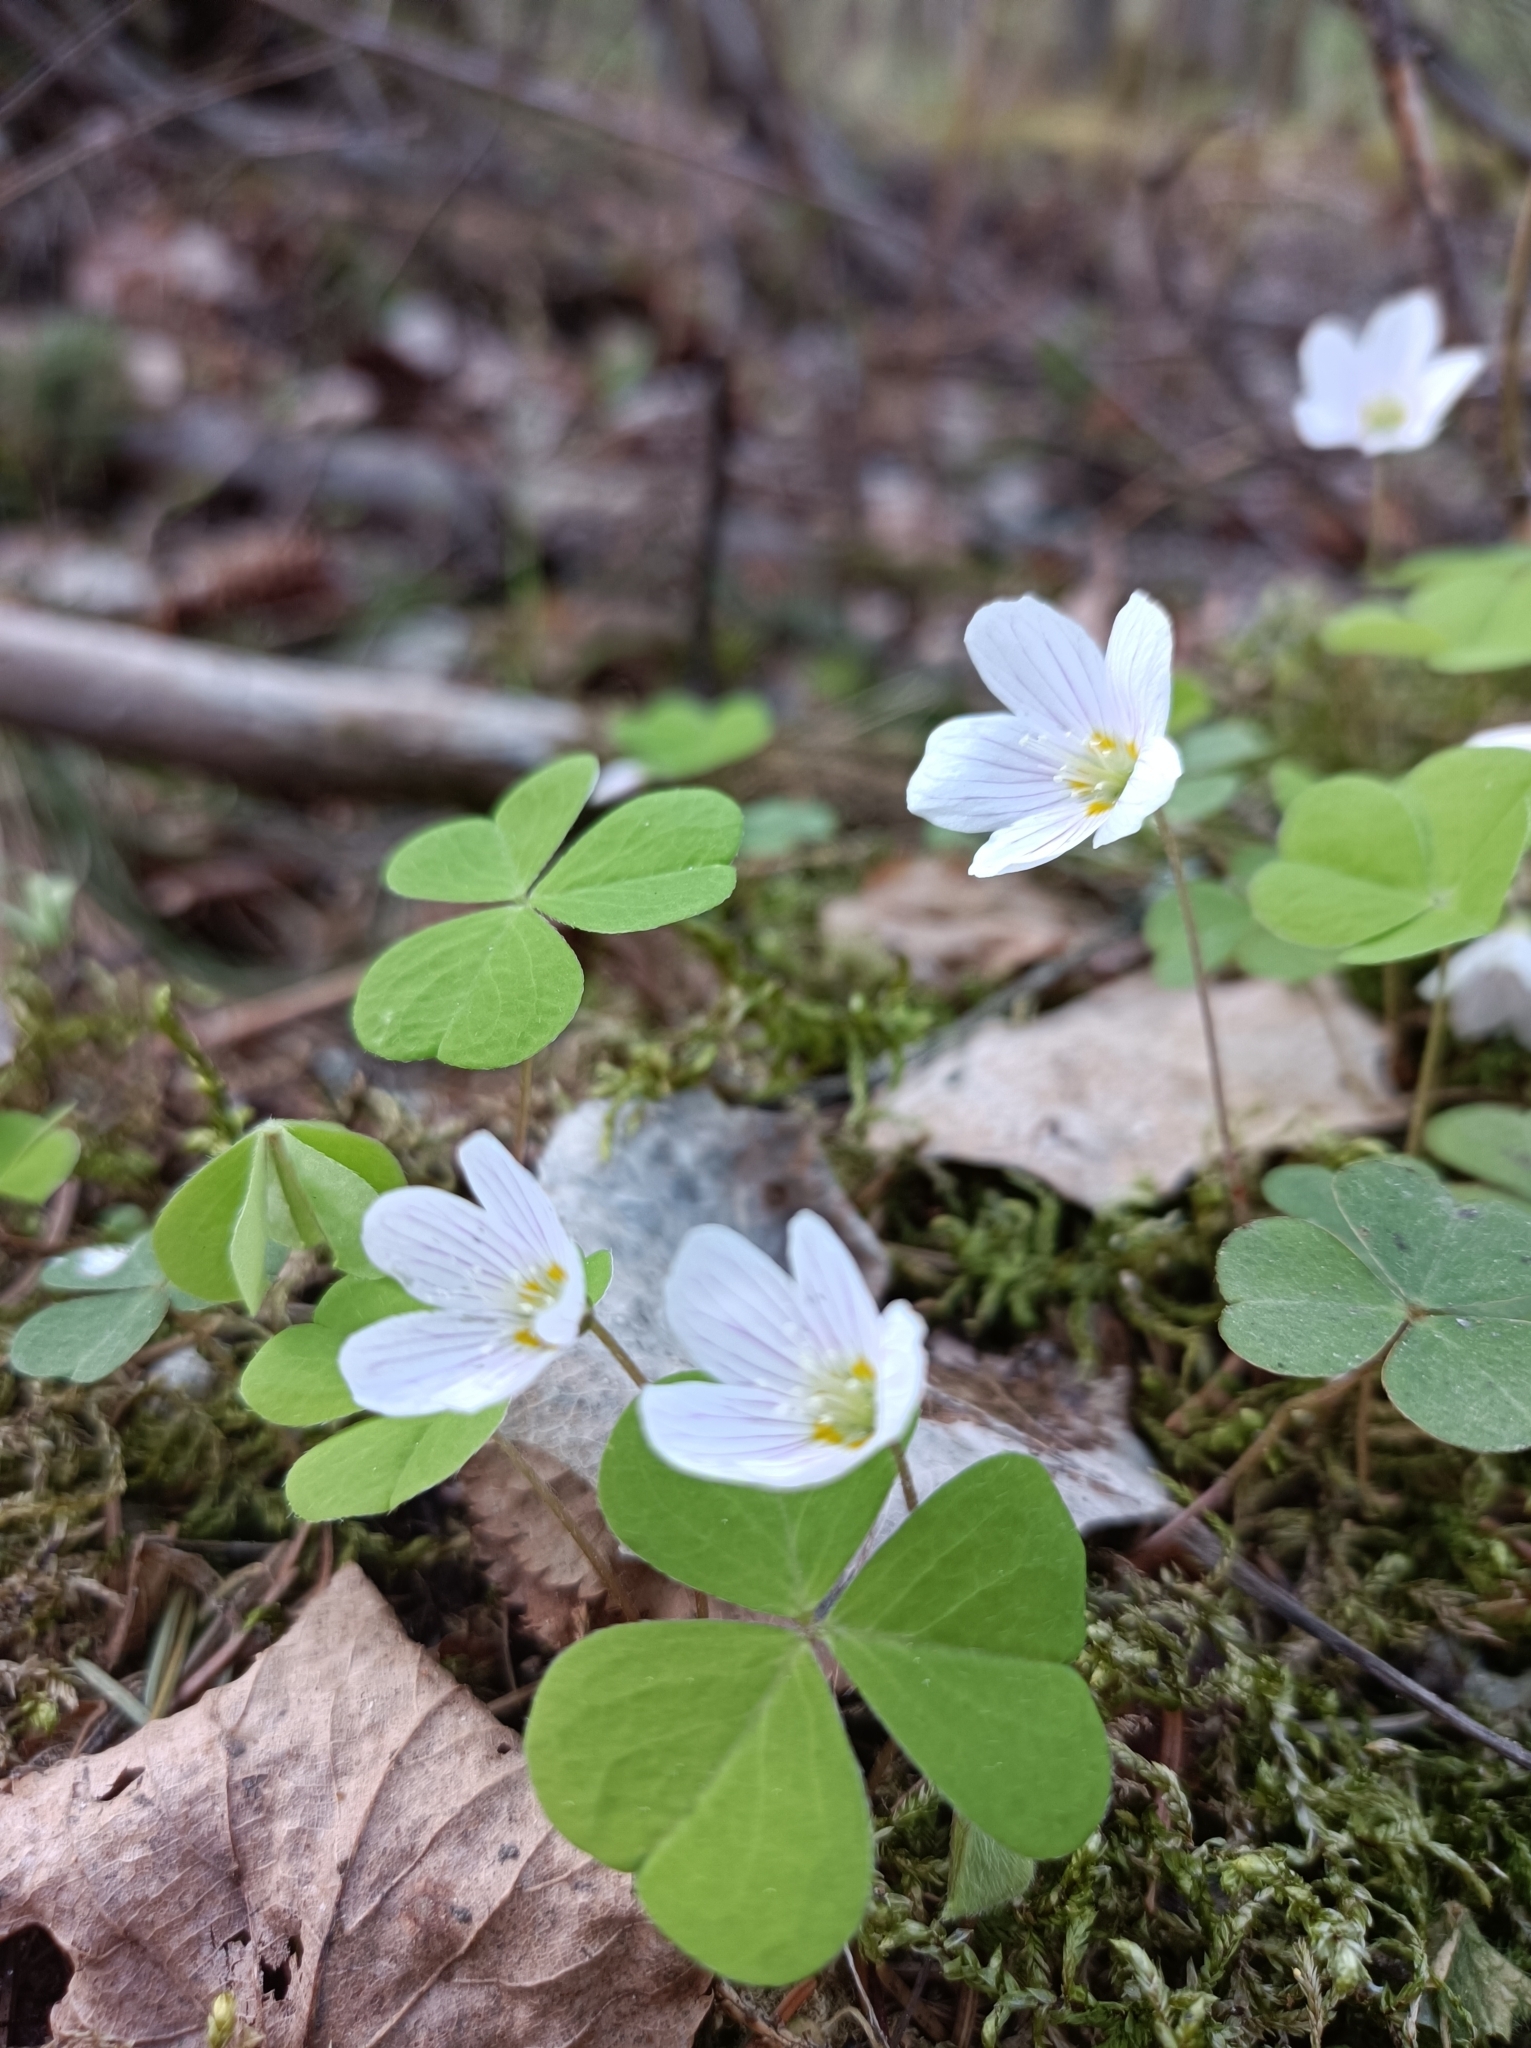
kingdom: Plantae
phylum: Tracheophyta
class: Magnoliopsida
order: Oxalidales
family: Oxalidaceae
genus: Oxalis
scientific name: Oxalis acetosella
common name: Wood-sorrel
